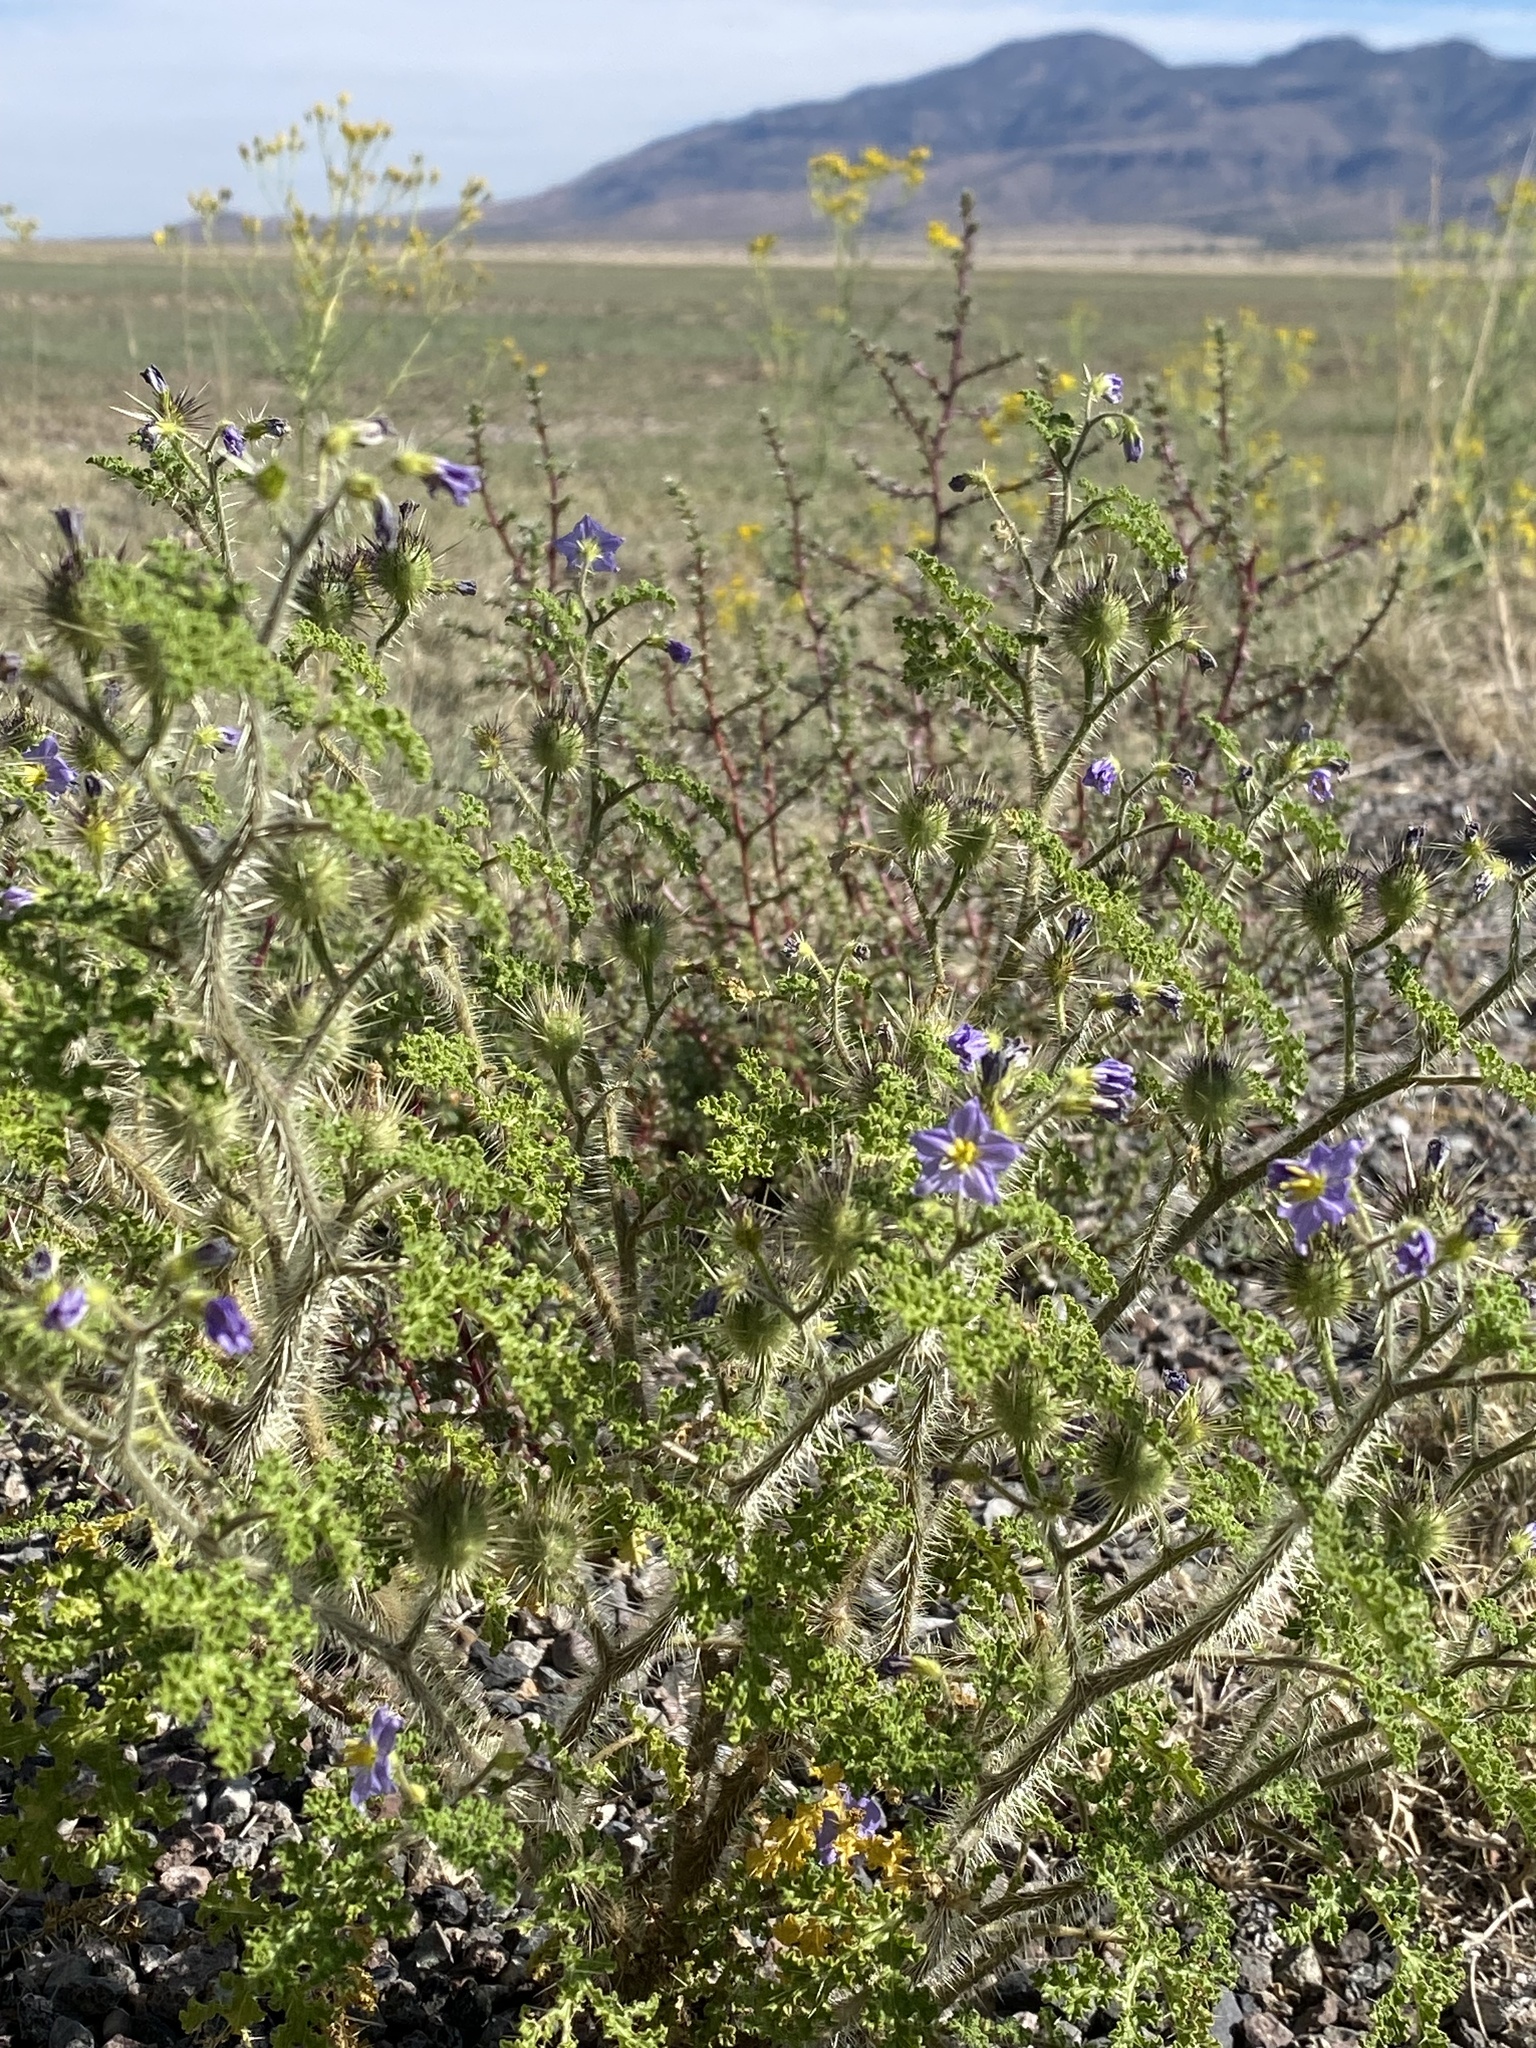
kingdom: Plantae
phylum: Tracheophyta
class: Magnoliopsida
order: Solanales
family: Solanaceae
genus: Solanum
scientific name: Solanum heterodoxum
